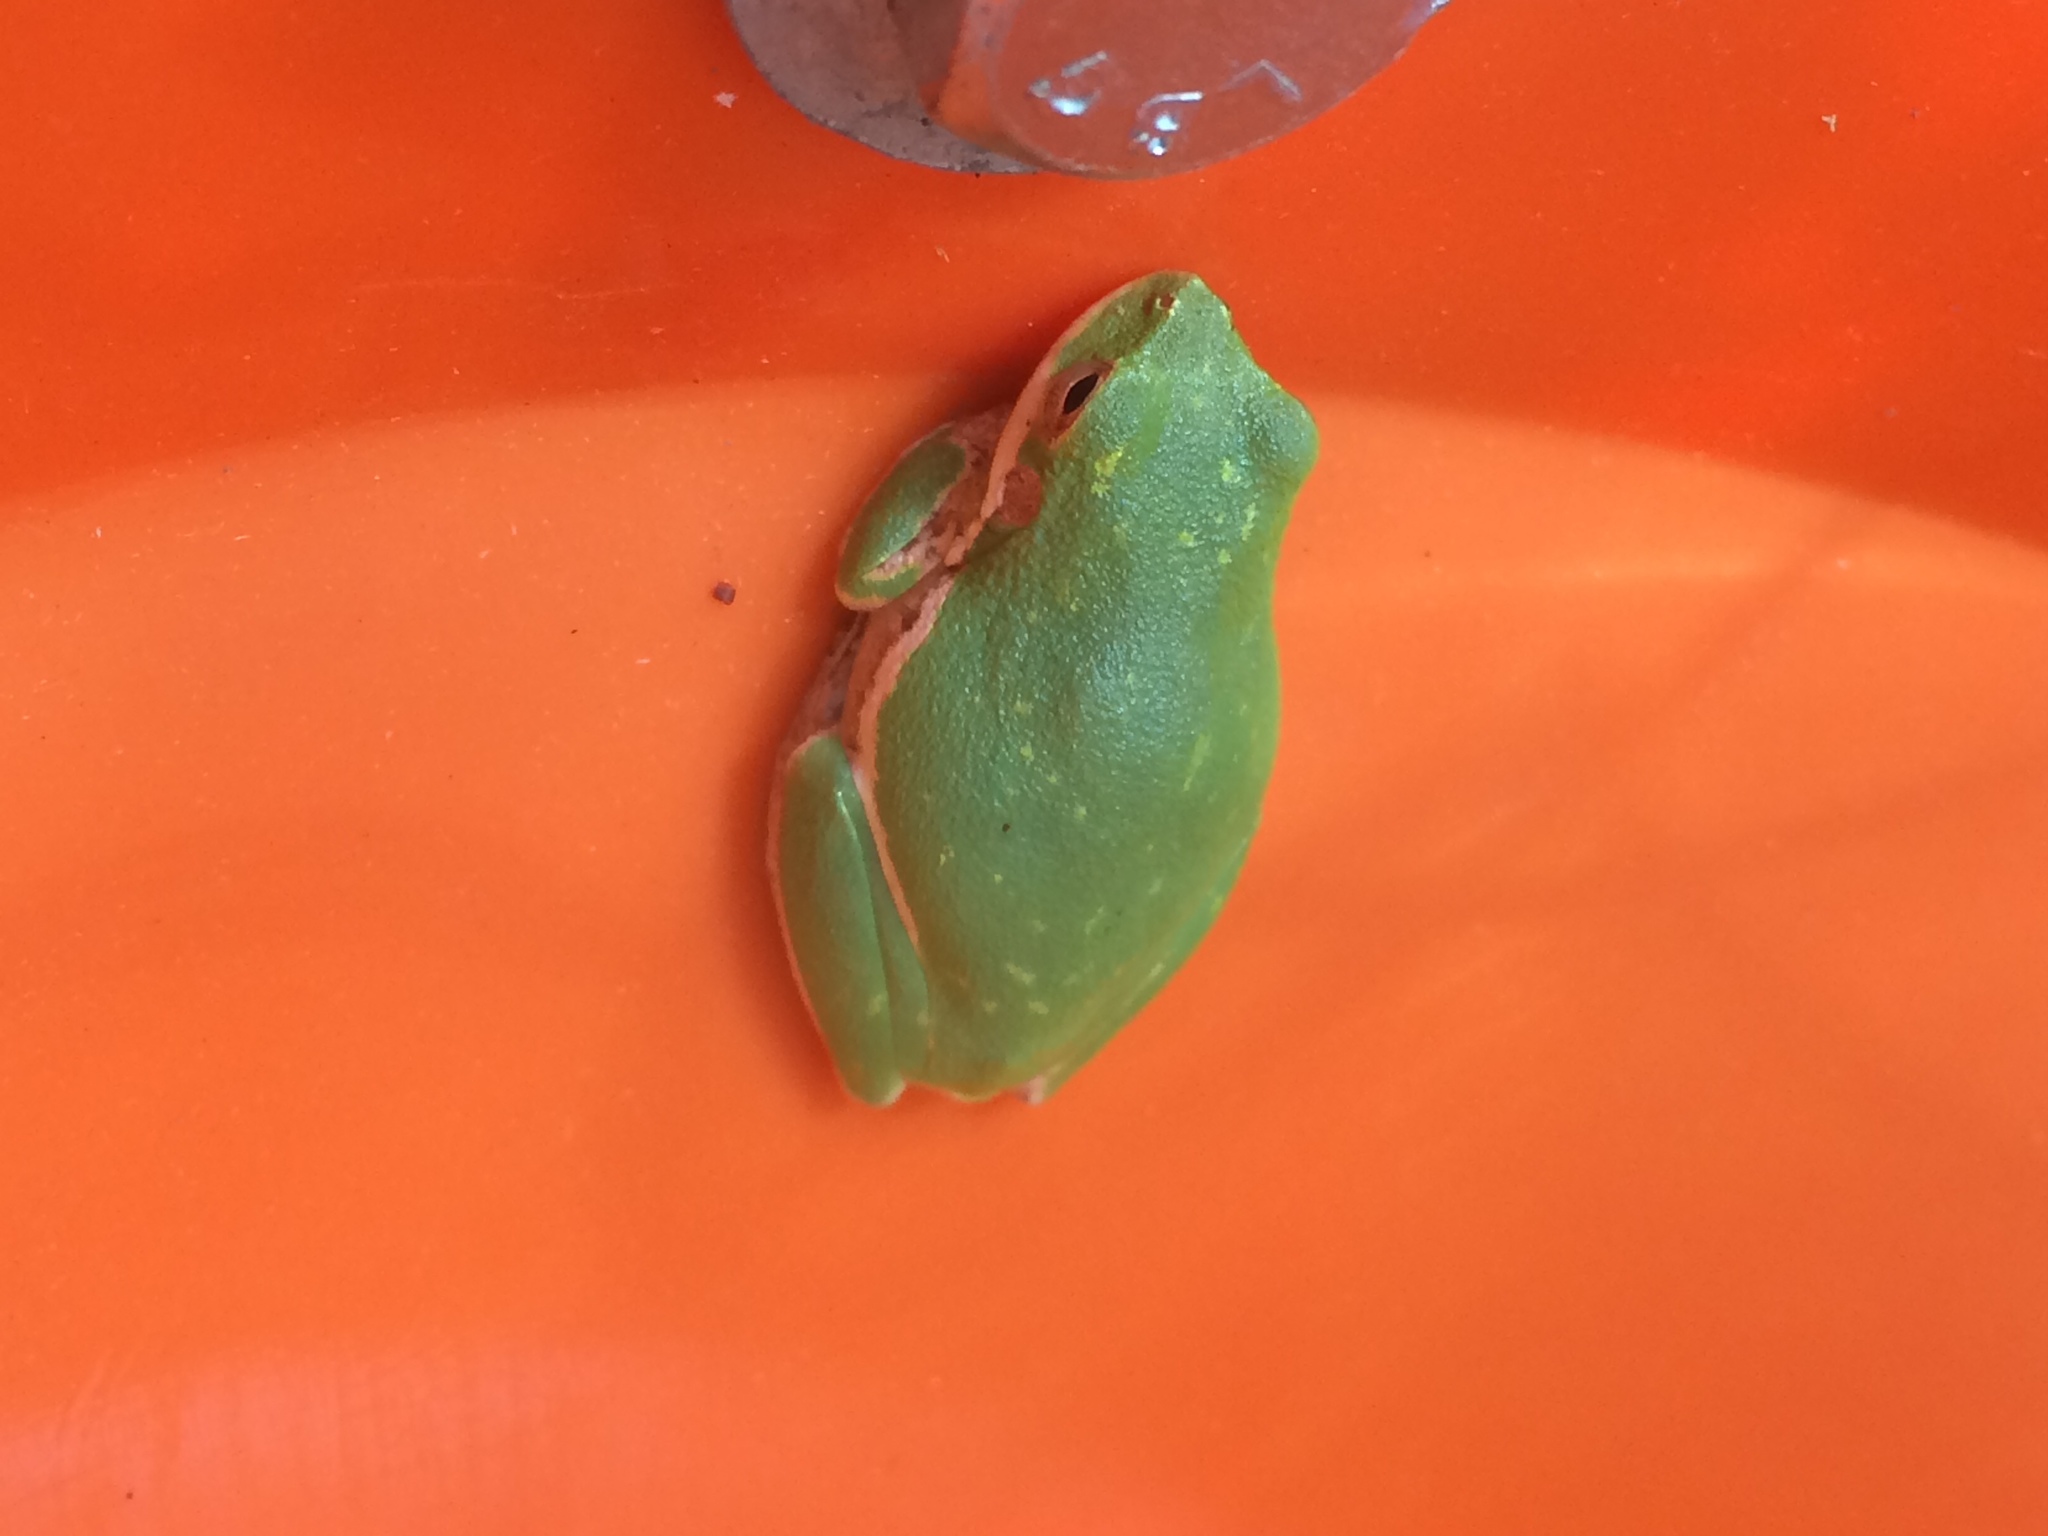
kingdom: Animalia
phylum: Chordata
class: Amphibia
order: Anura
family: Hylidae
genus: Dryophytes
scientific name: Dryophytes gratiosus
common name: Barking treefrog
